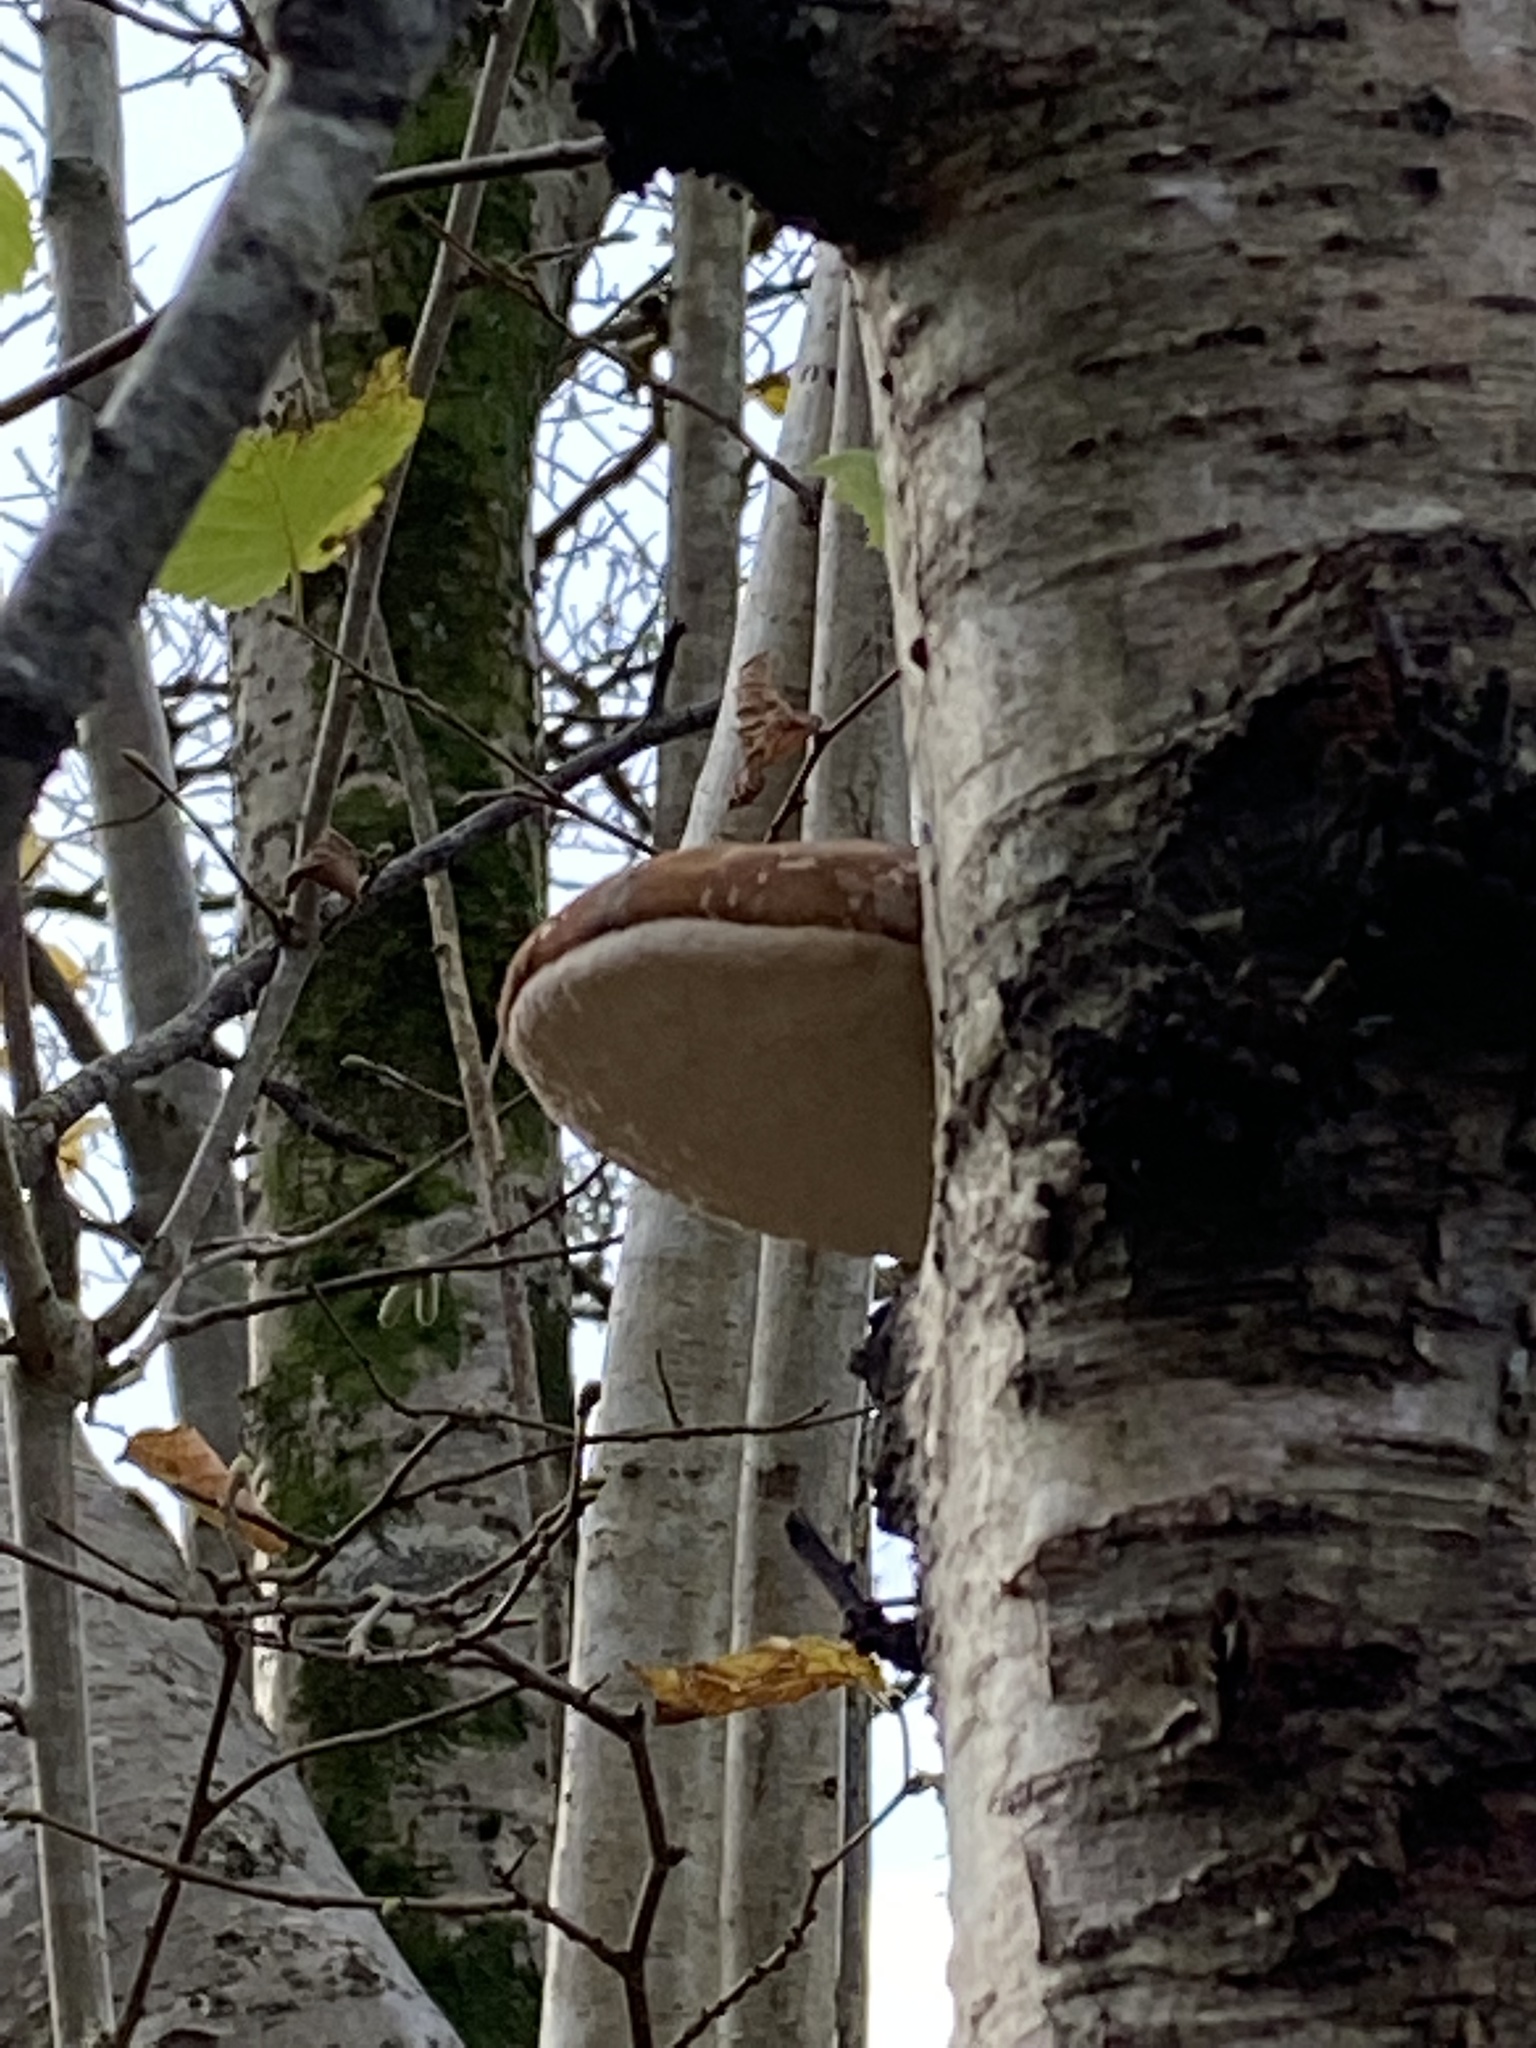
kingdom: Fungi
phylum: Basidiomycota
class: Agaricomycetes
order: Polyporales
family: Fomitopsidaceae
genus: Fomitopsis
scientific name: Fomitopsis betulina
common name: Birch polypore
